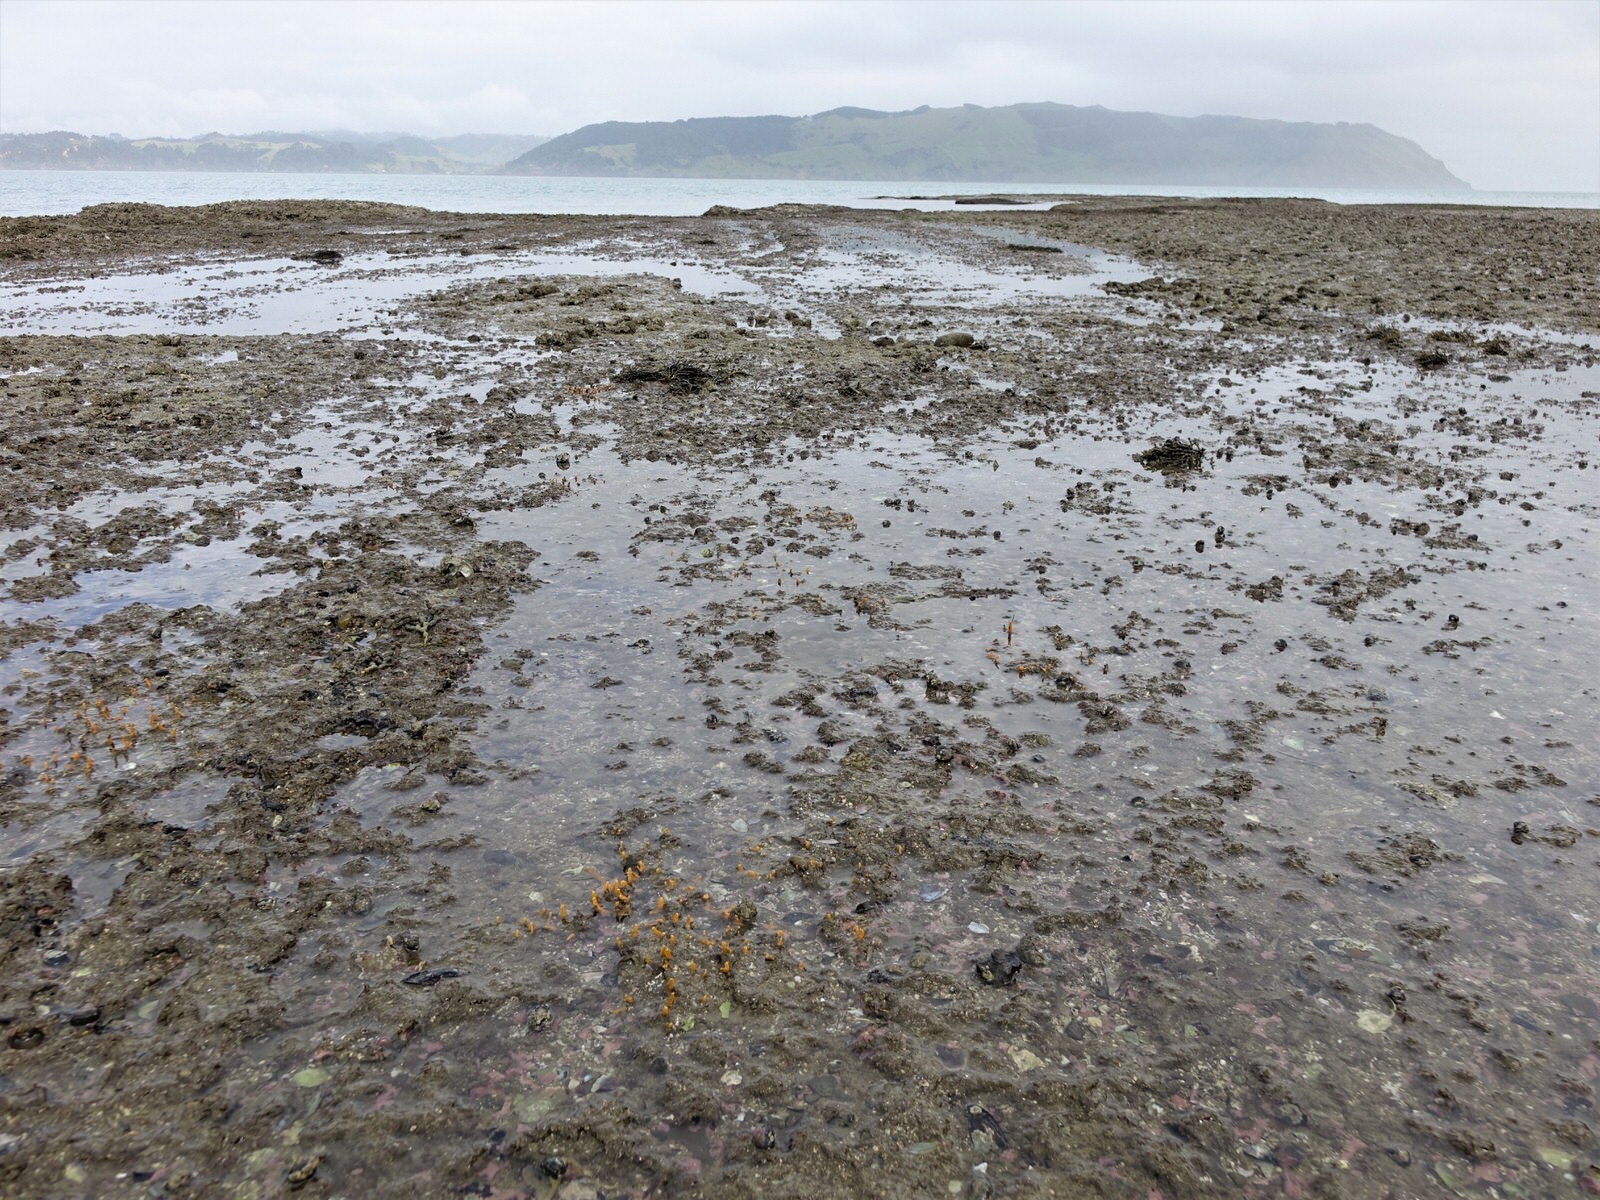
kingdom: Animalia
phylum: Porifera
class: Demospongiae
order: Suberitida
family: Halichondriidae
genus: Ciocalypta
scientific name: Ciocalypta penicillus
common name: Brush sponge
